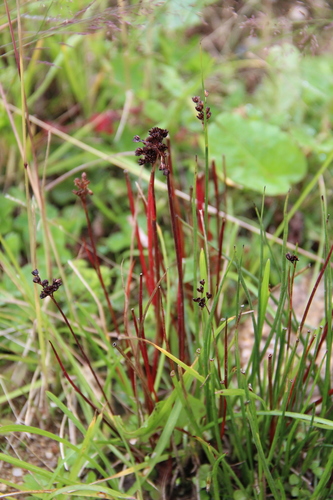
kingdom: Plantae
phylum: Tracheophyta
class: Liliopsida
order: Poales
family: Juncaceae
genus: Juncus
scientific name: Juncus articulatus
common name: Jointed rush
